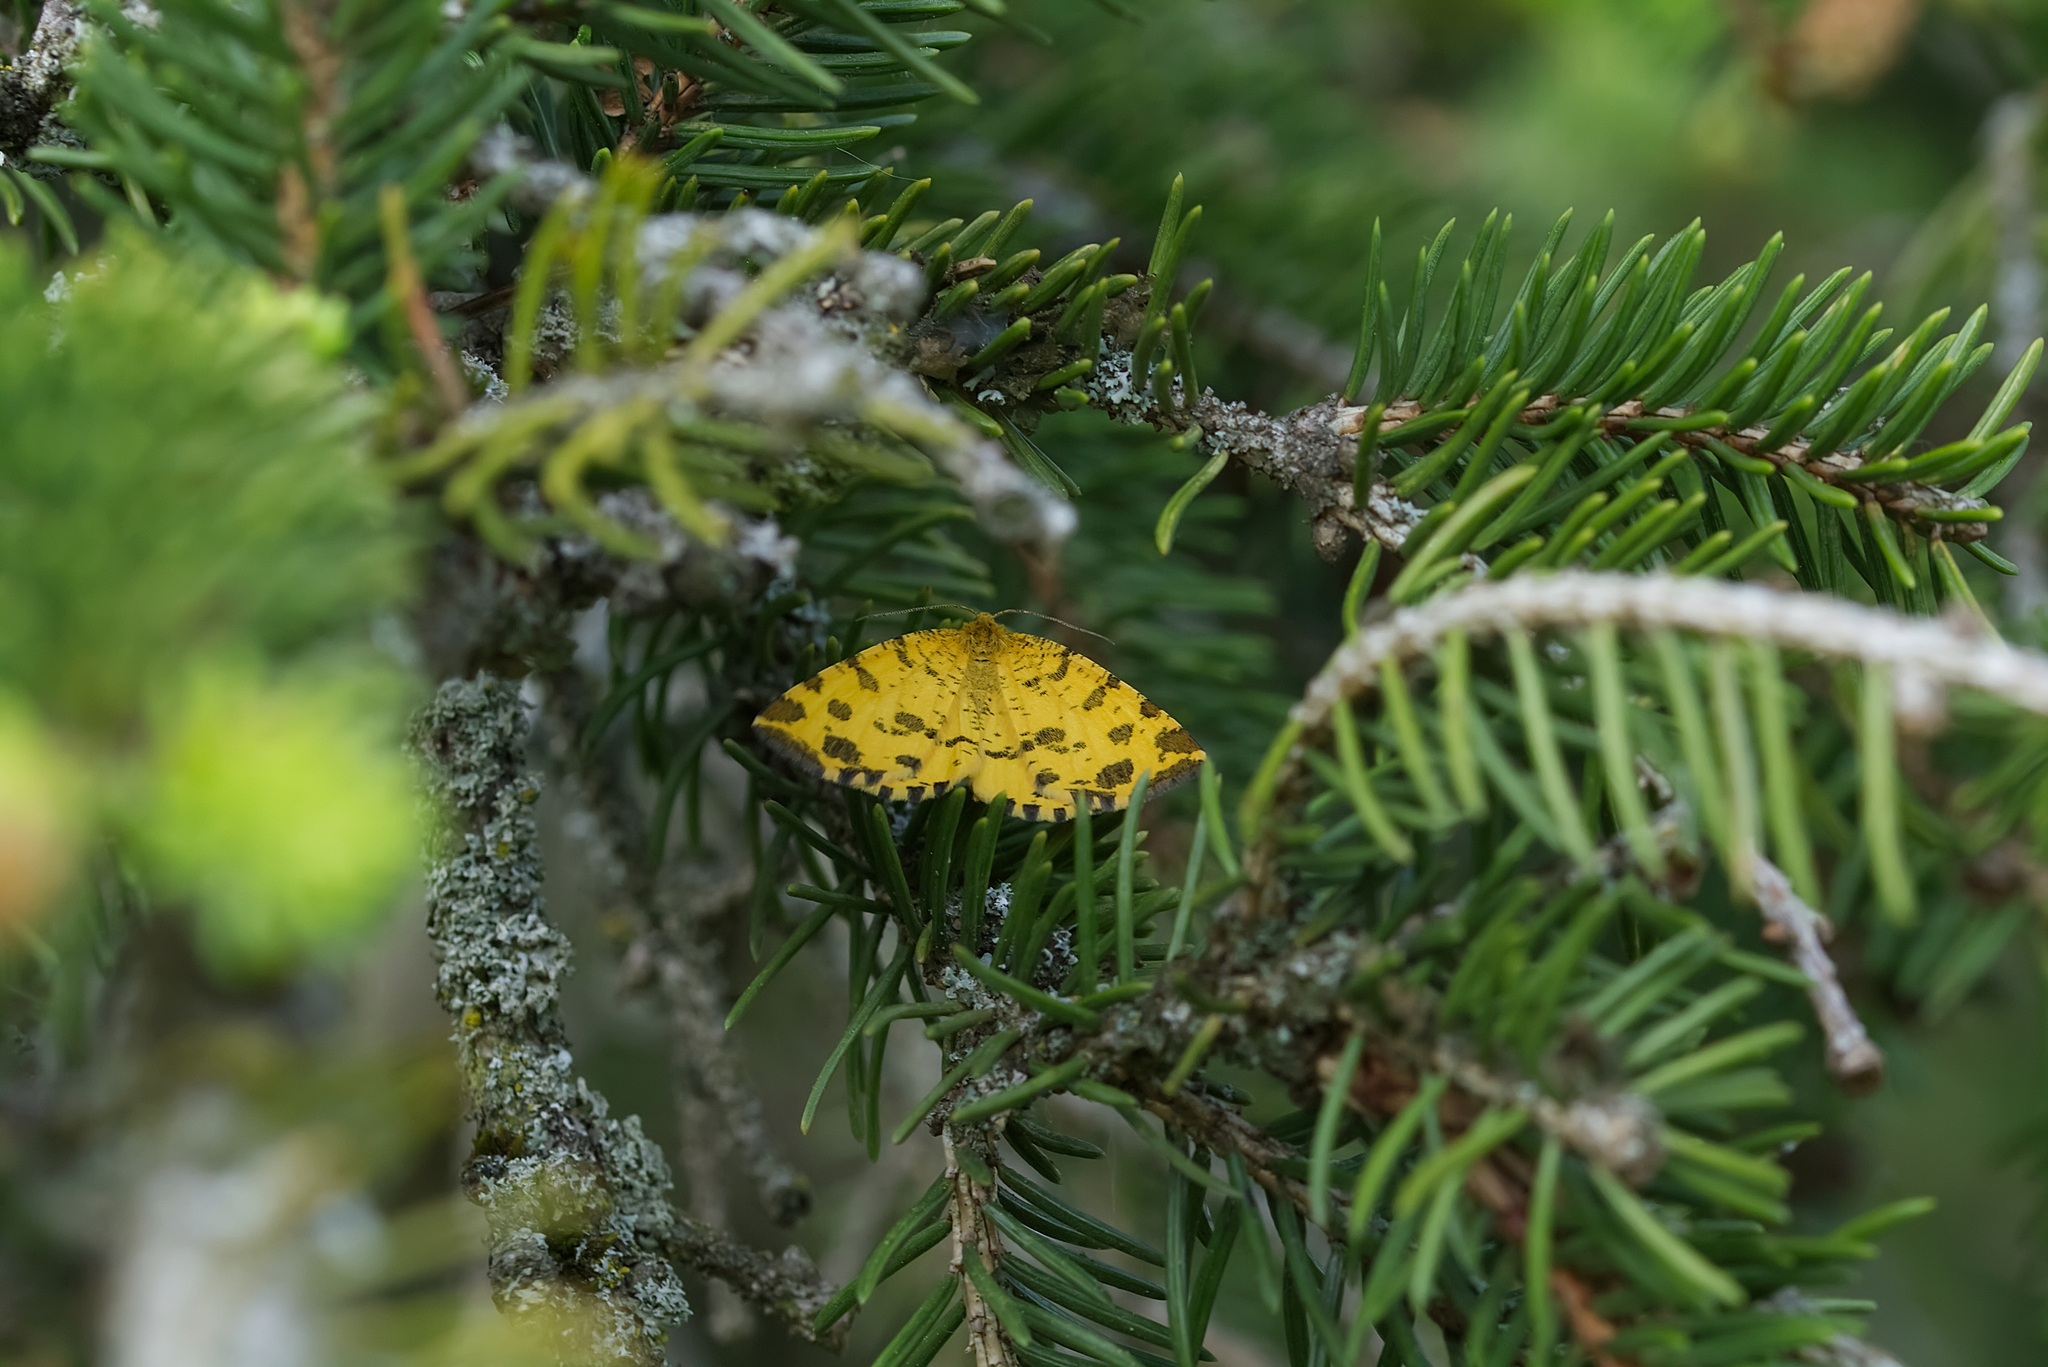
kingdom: Animalia
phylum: Arthropoda
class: Insecta
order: Lepidoptera
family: Geometridae
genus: Pseudopanthera
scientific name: Pseudopanthera macularia
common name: Speckled yellow
